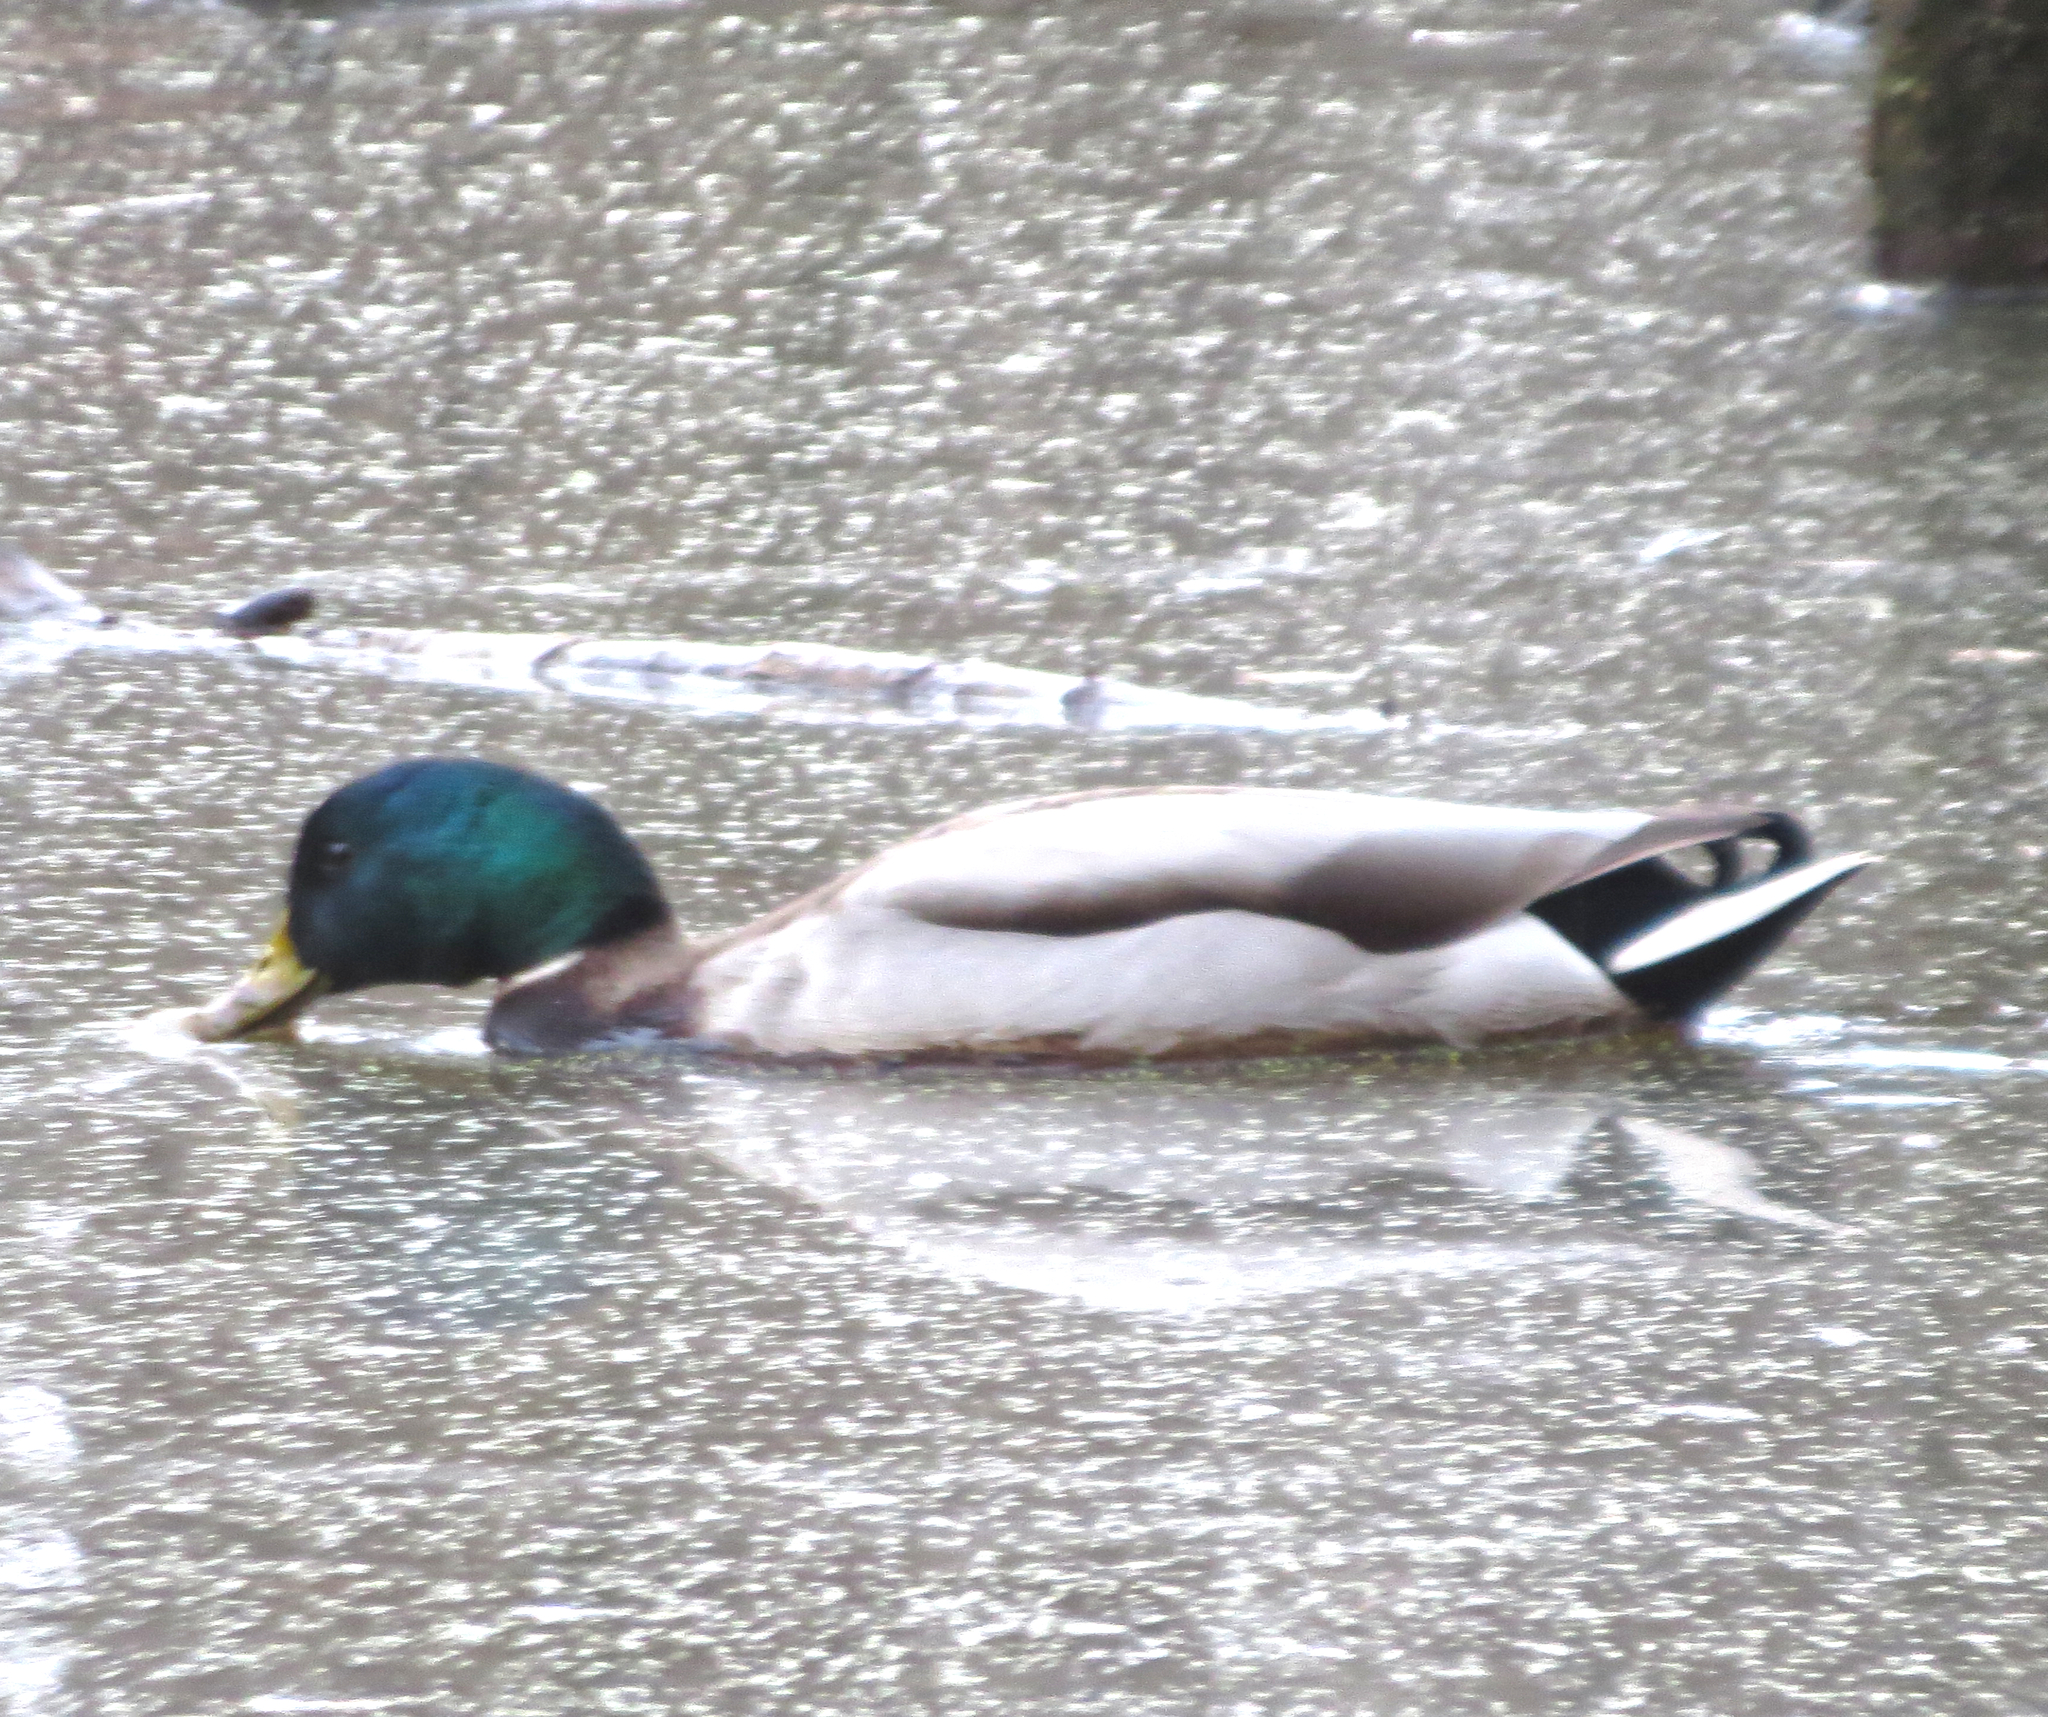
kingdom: Animalia
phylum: Chordata
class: Aves
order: Anseriformes
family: Anatidae
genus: Anas
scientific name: Anas platyrhynchos
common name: Mallard
